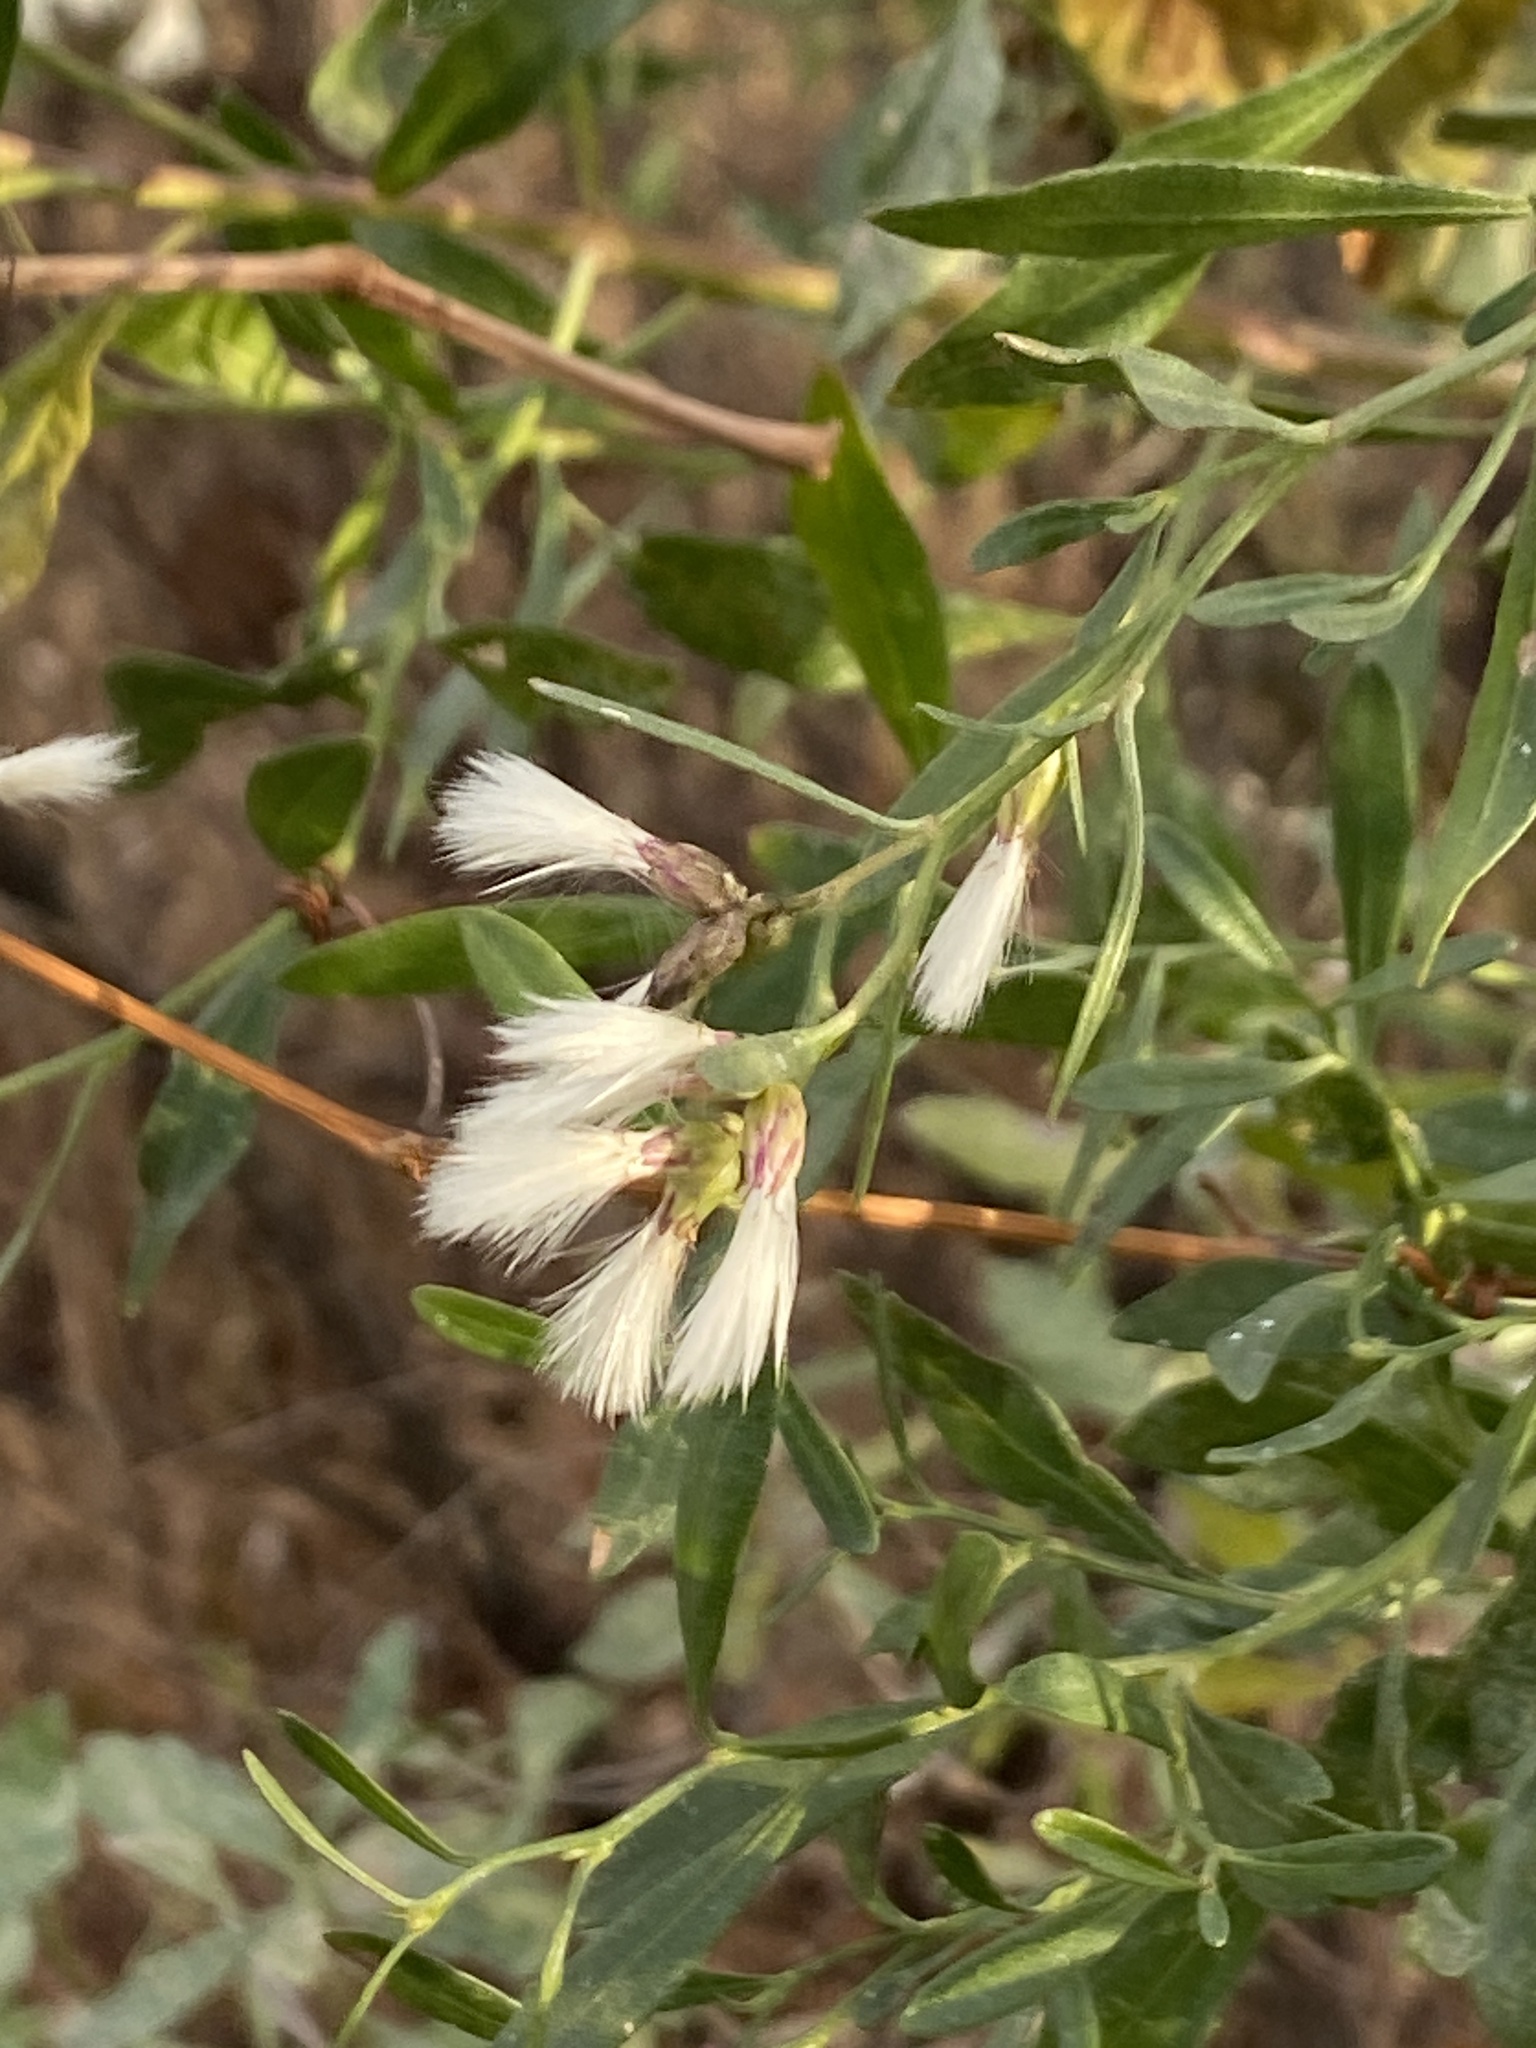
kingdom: Plantae
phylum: Tracheophyta
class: Magnoliopsida
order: Asterales
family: Asteraceae
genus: Baccharis
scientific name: Baccharis halimifolia
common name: Eastern baccharis
